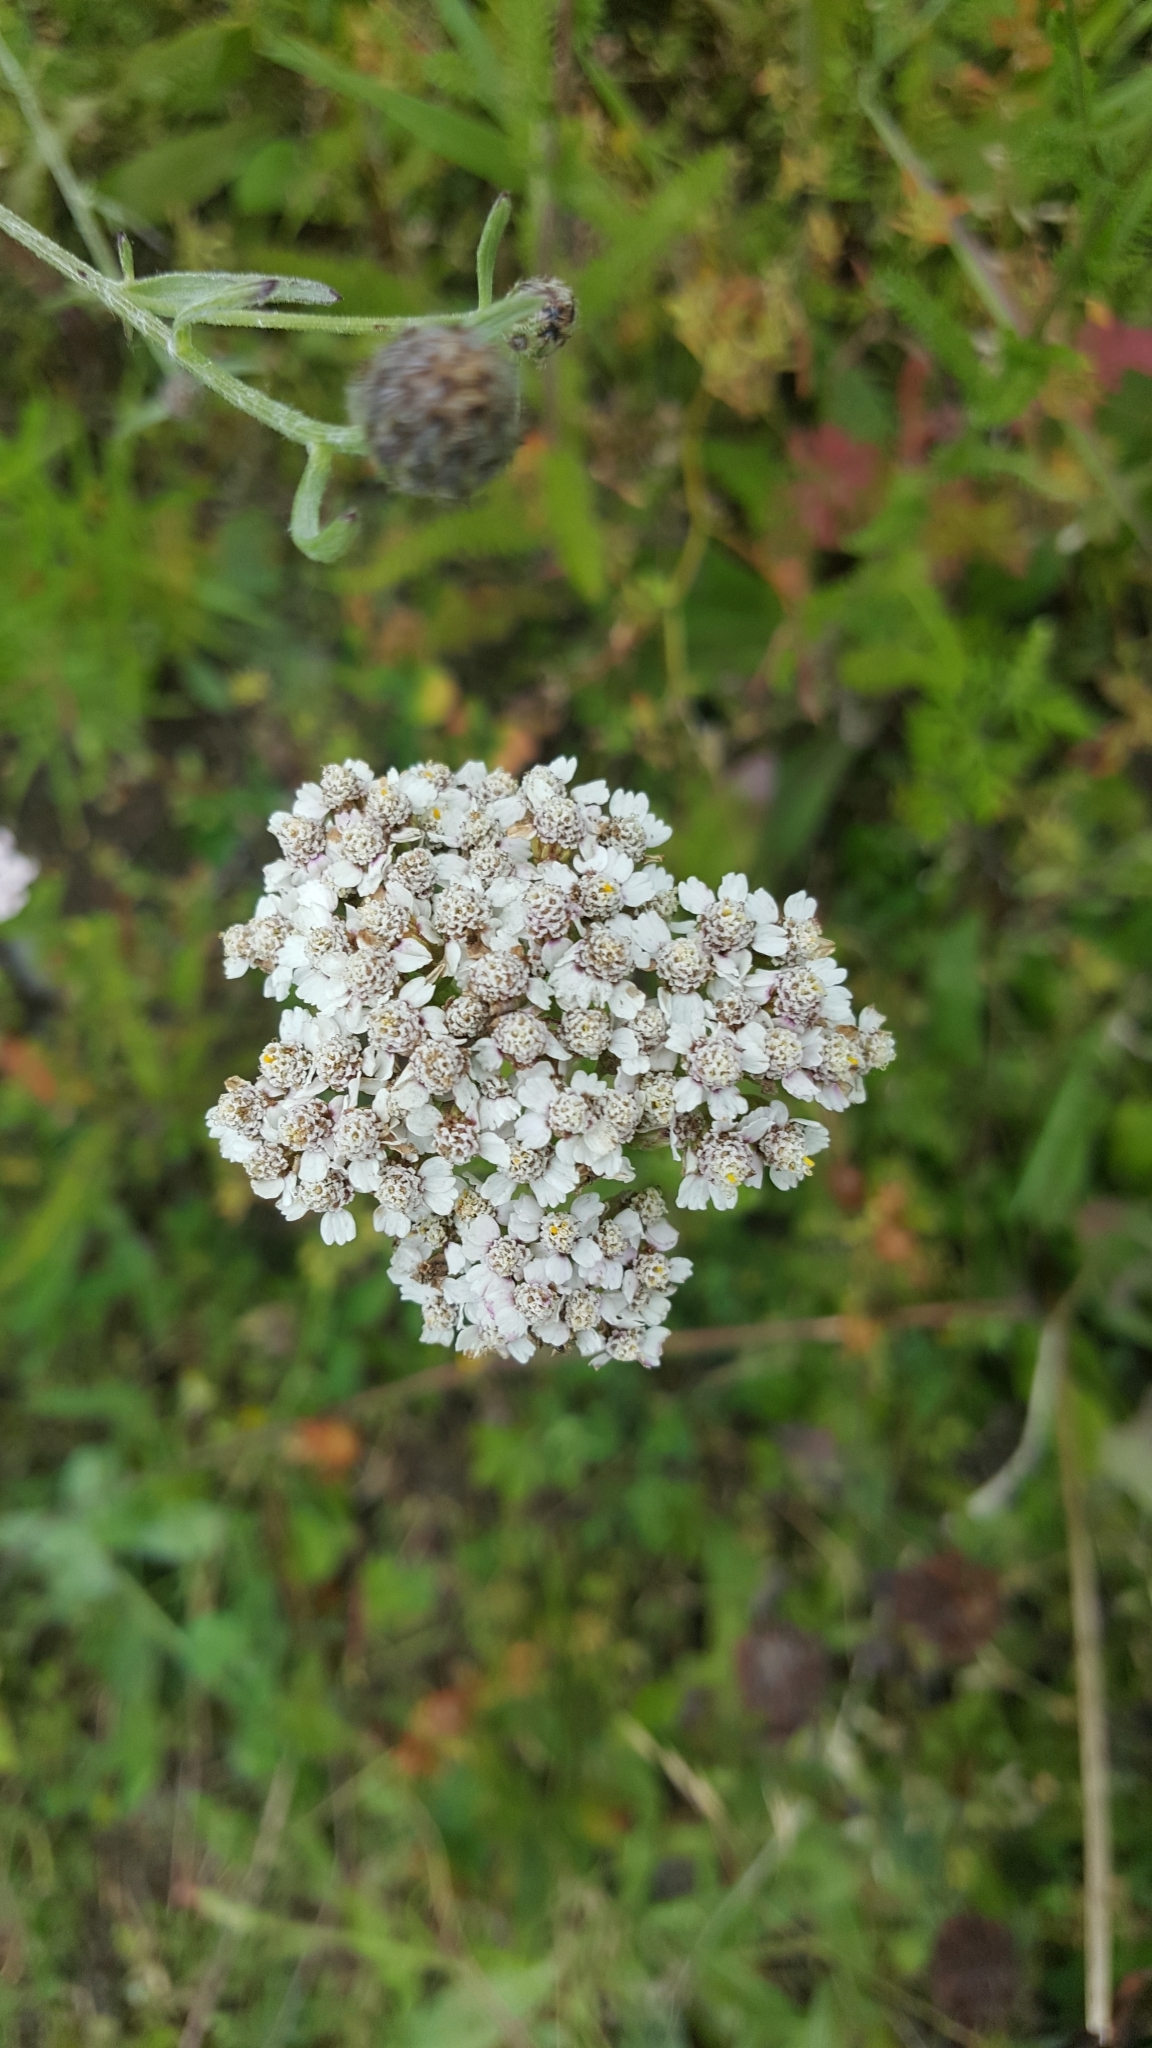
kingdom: Plantae
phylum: Tracheophyta
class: Magnoliopsida
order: Asterales
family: Asteraceae
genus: Achillea
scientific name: Achillea millefolium
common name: Yarrow
